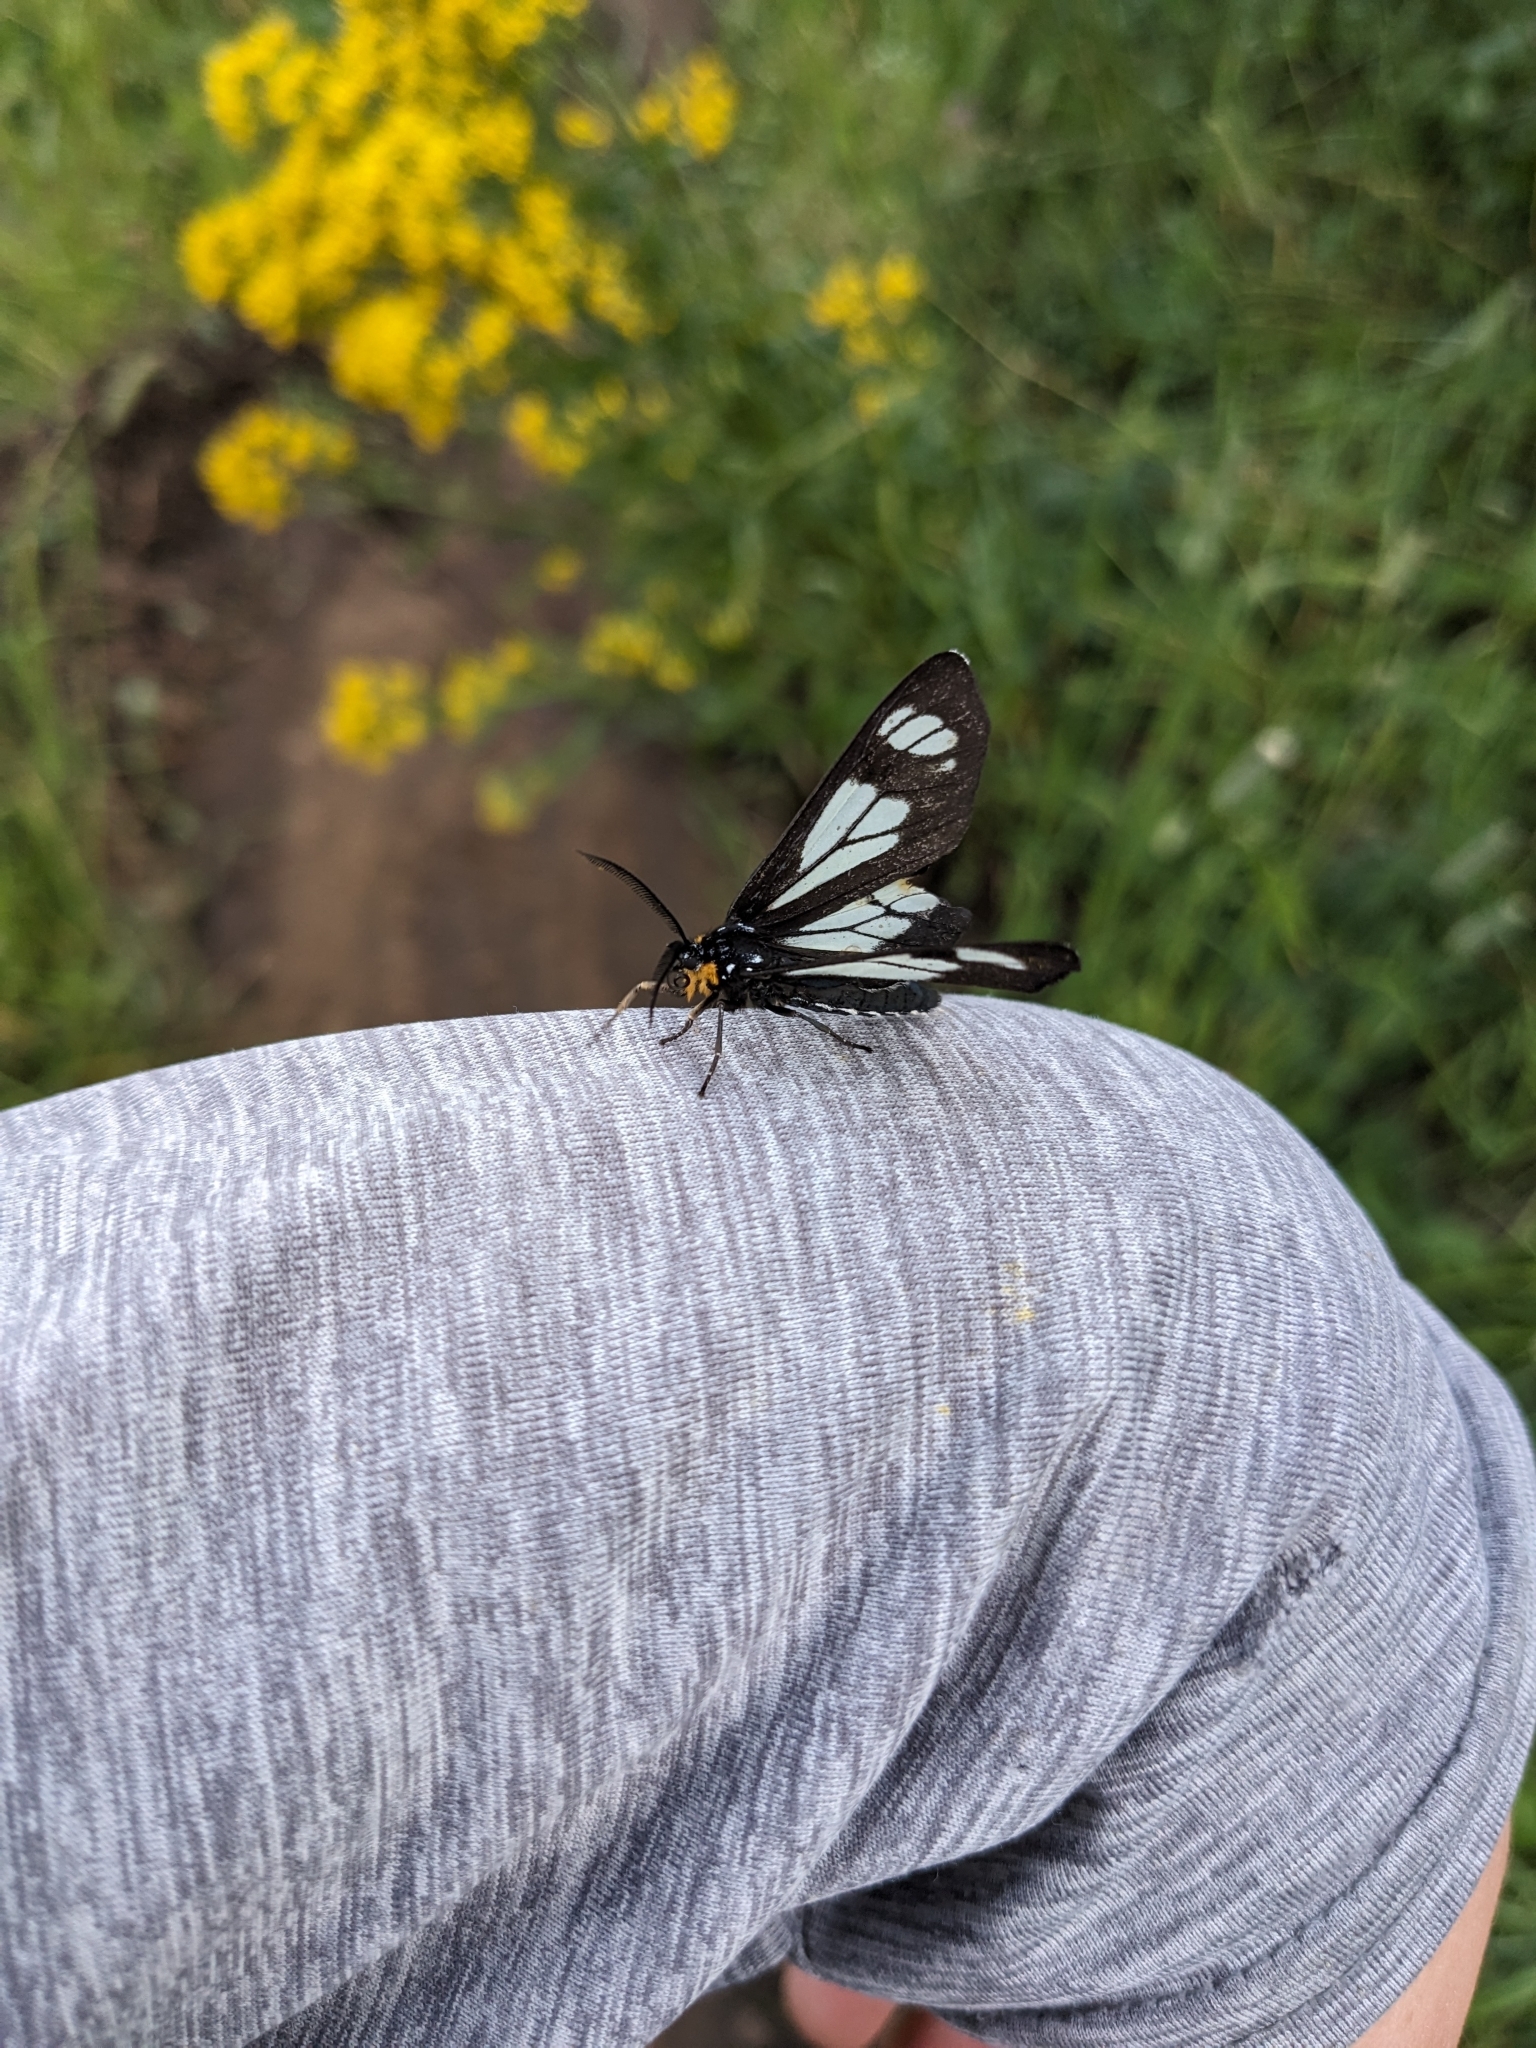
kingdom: Animalia
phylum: Arthropoda
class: Insecta
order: Lepidoptera
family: Erebidae
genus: Gnophaela
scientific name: Gnophaela vermiculata
